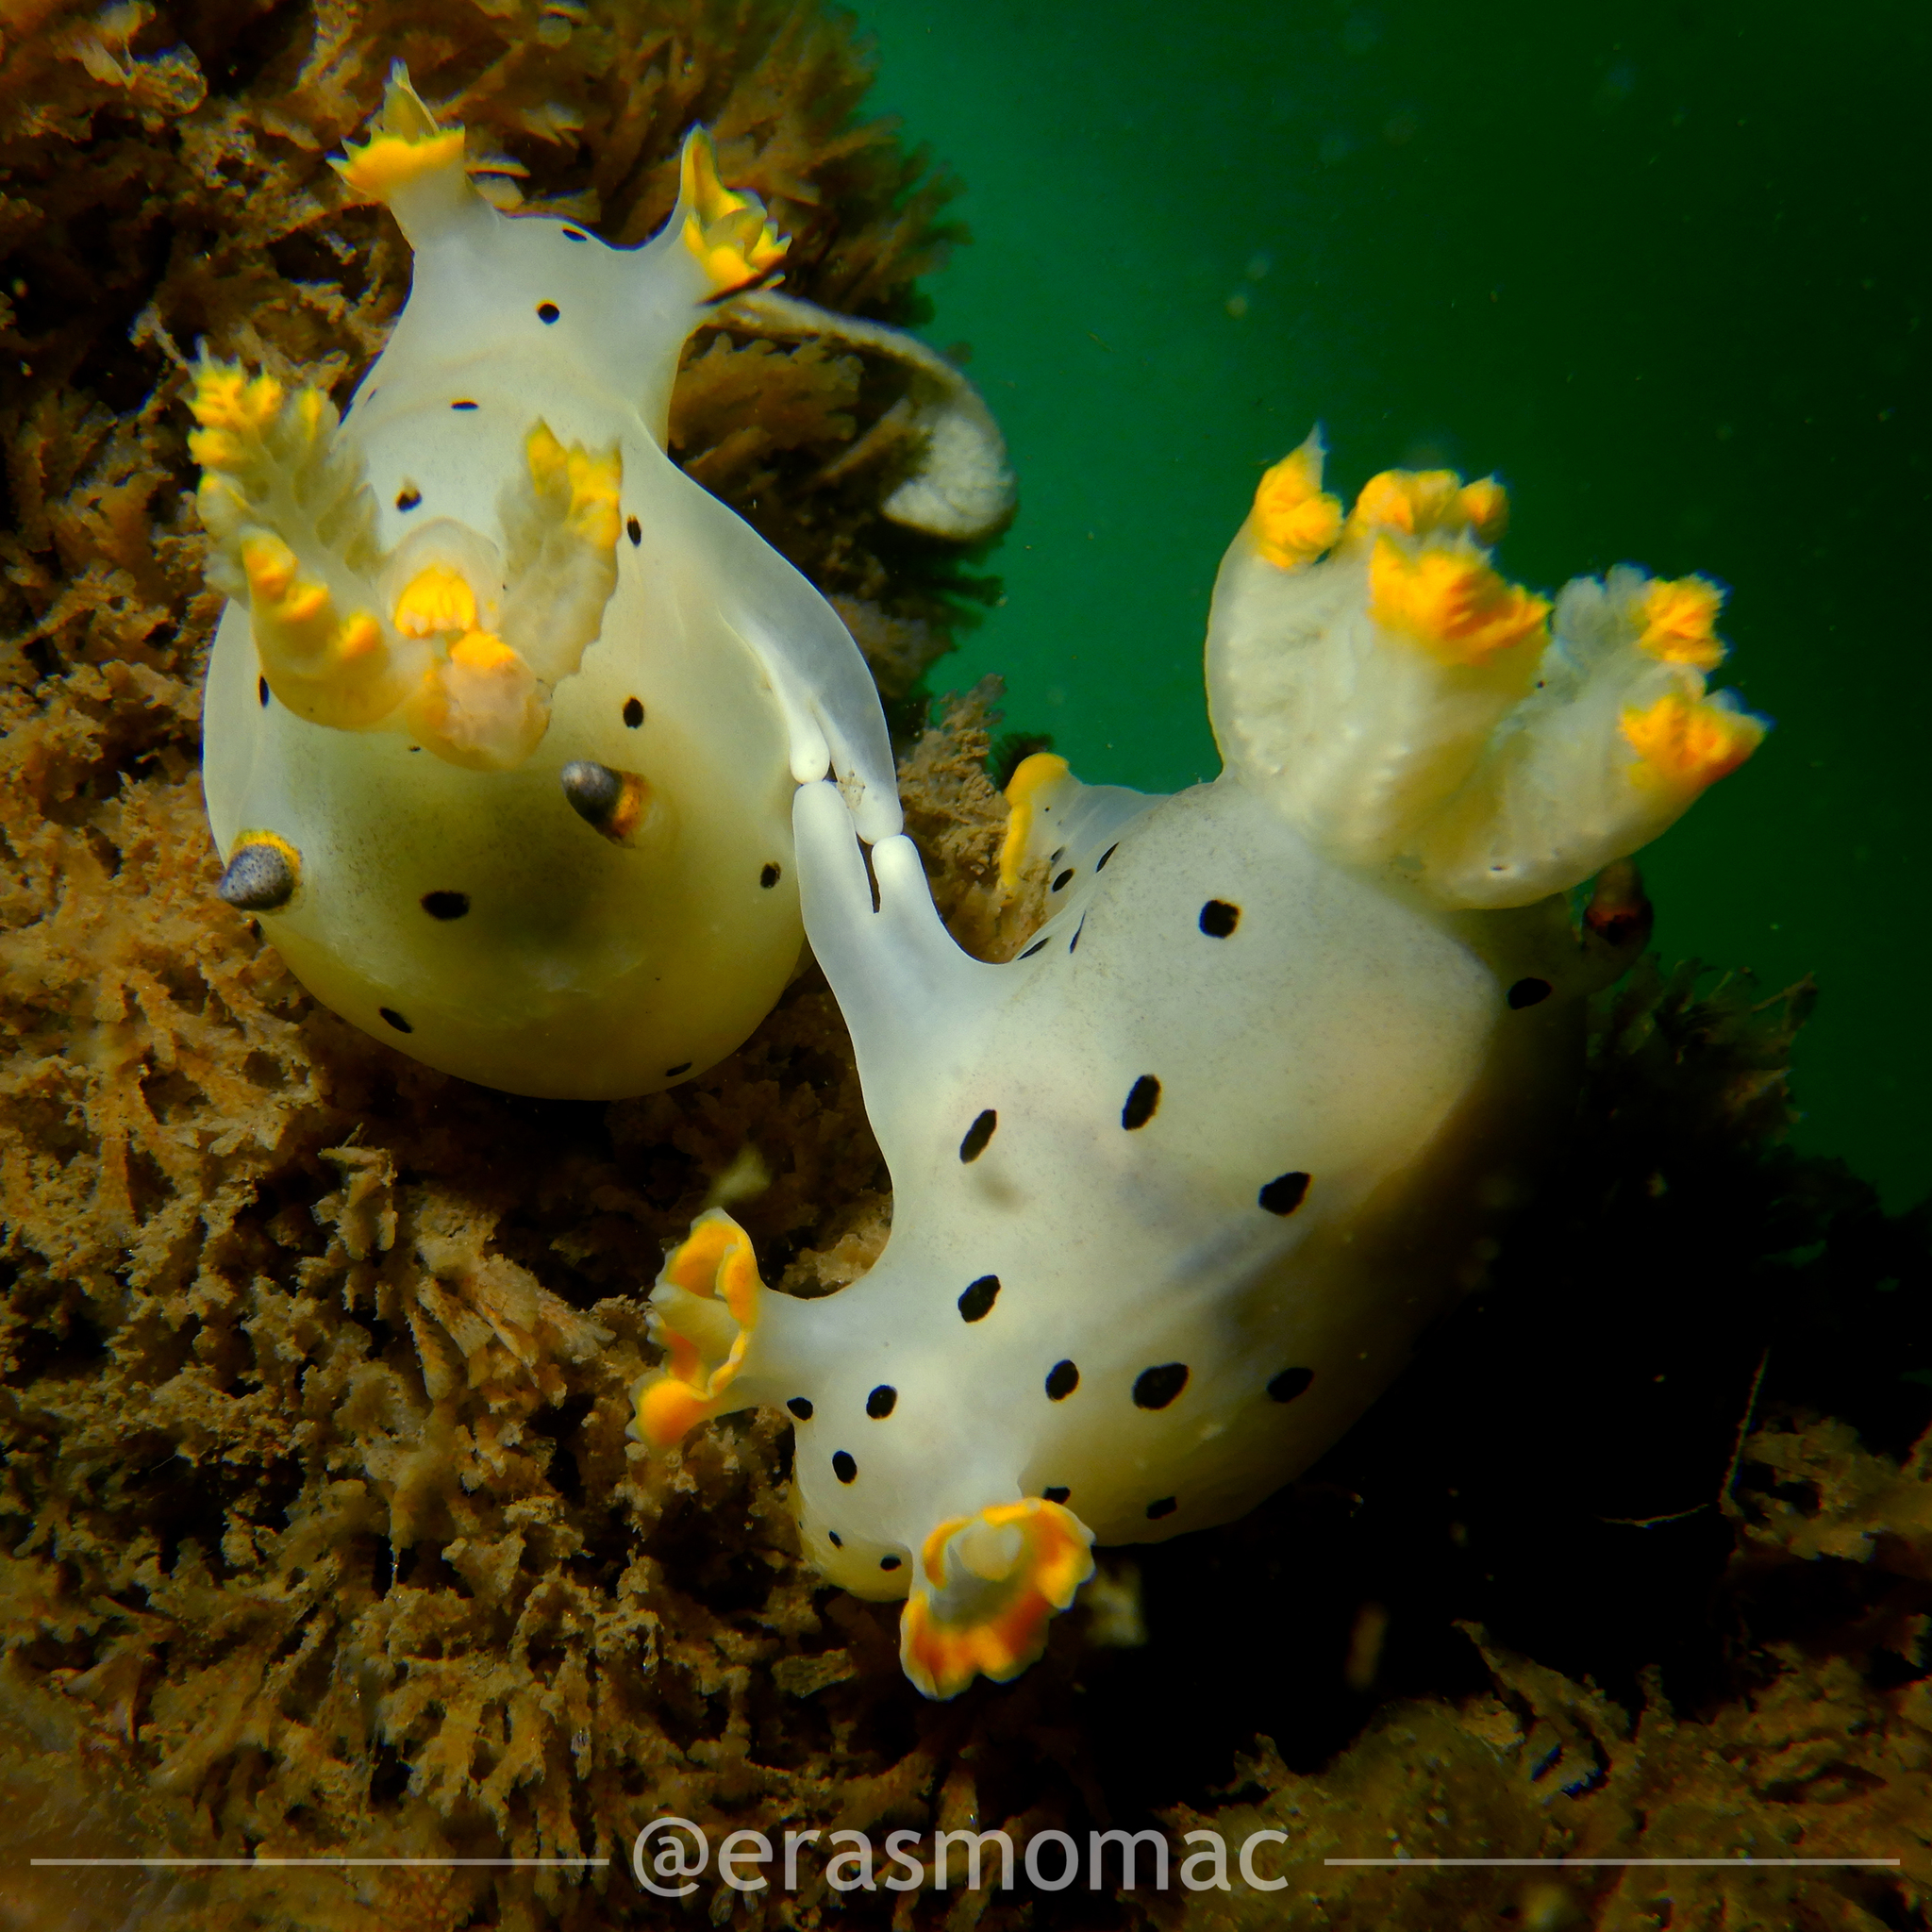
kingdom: Animalia
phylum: Mollusca
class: Gastropoda
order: Nudibranchia
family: Polyceridae
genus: Thecacera
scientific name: Thecacera darwini
